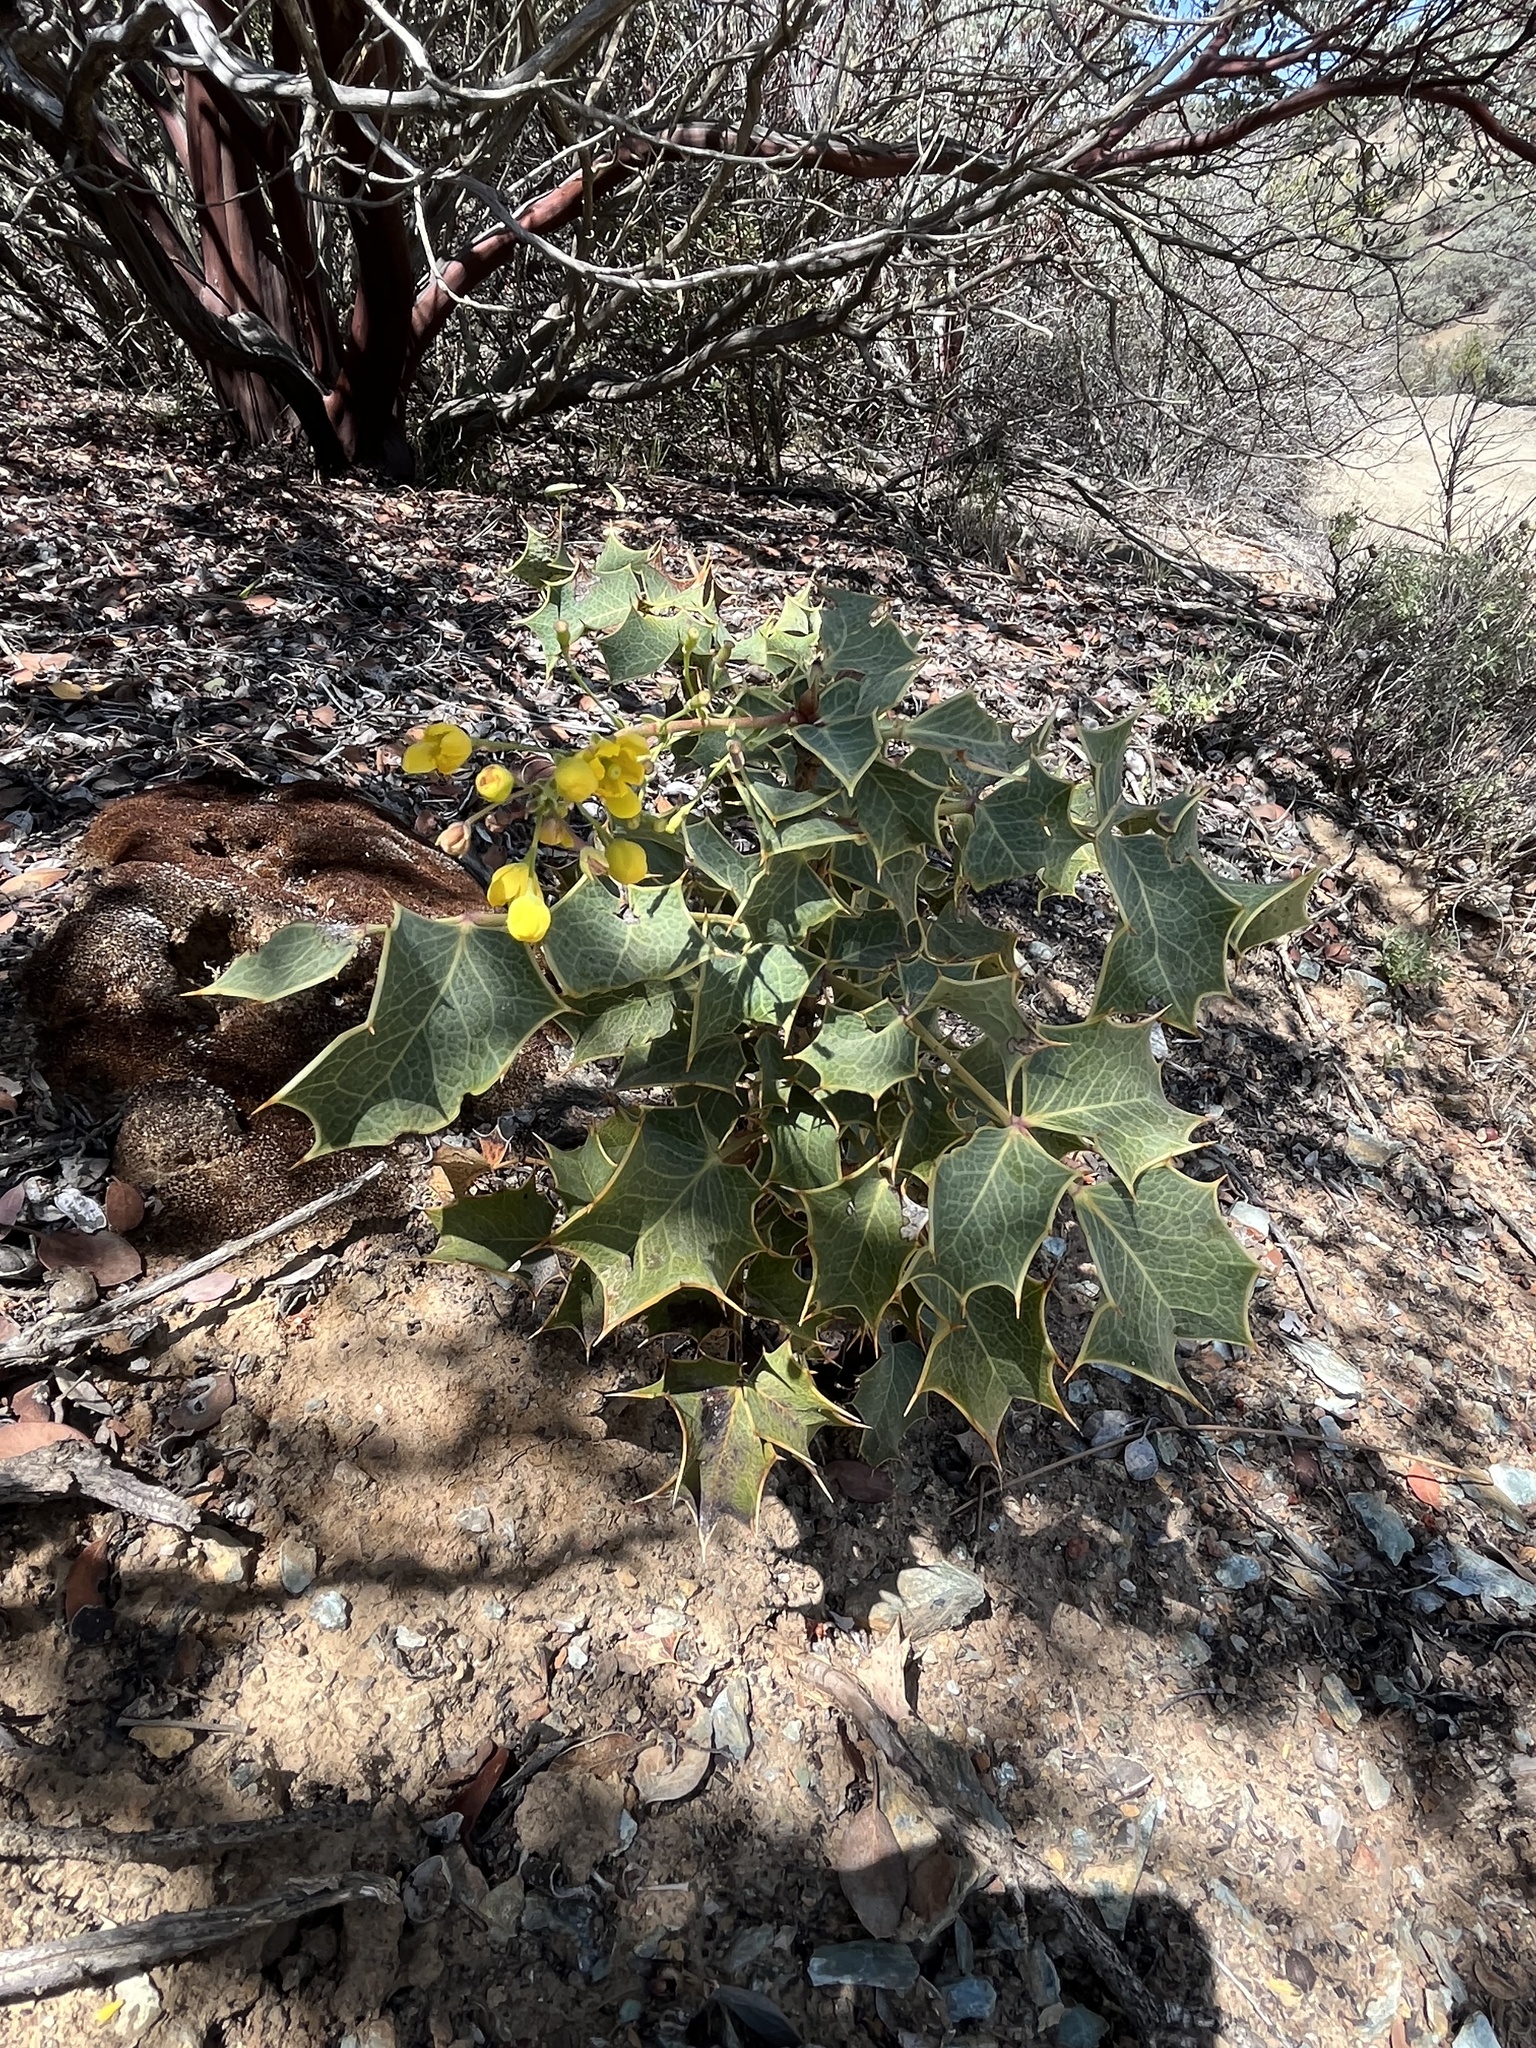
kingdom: Plantae
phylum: Tracheophyta
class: Magnoliopsida
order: Ranunculales
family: Berberidaceae
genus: Mahonia
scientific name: Mahonia dictyota
